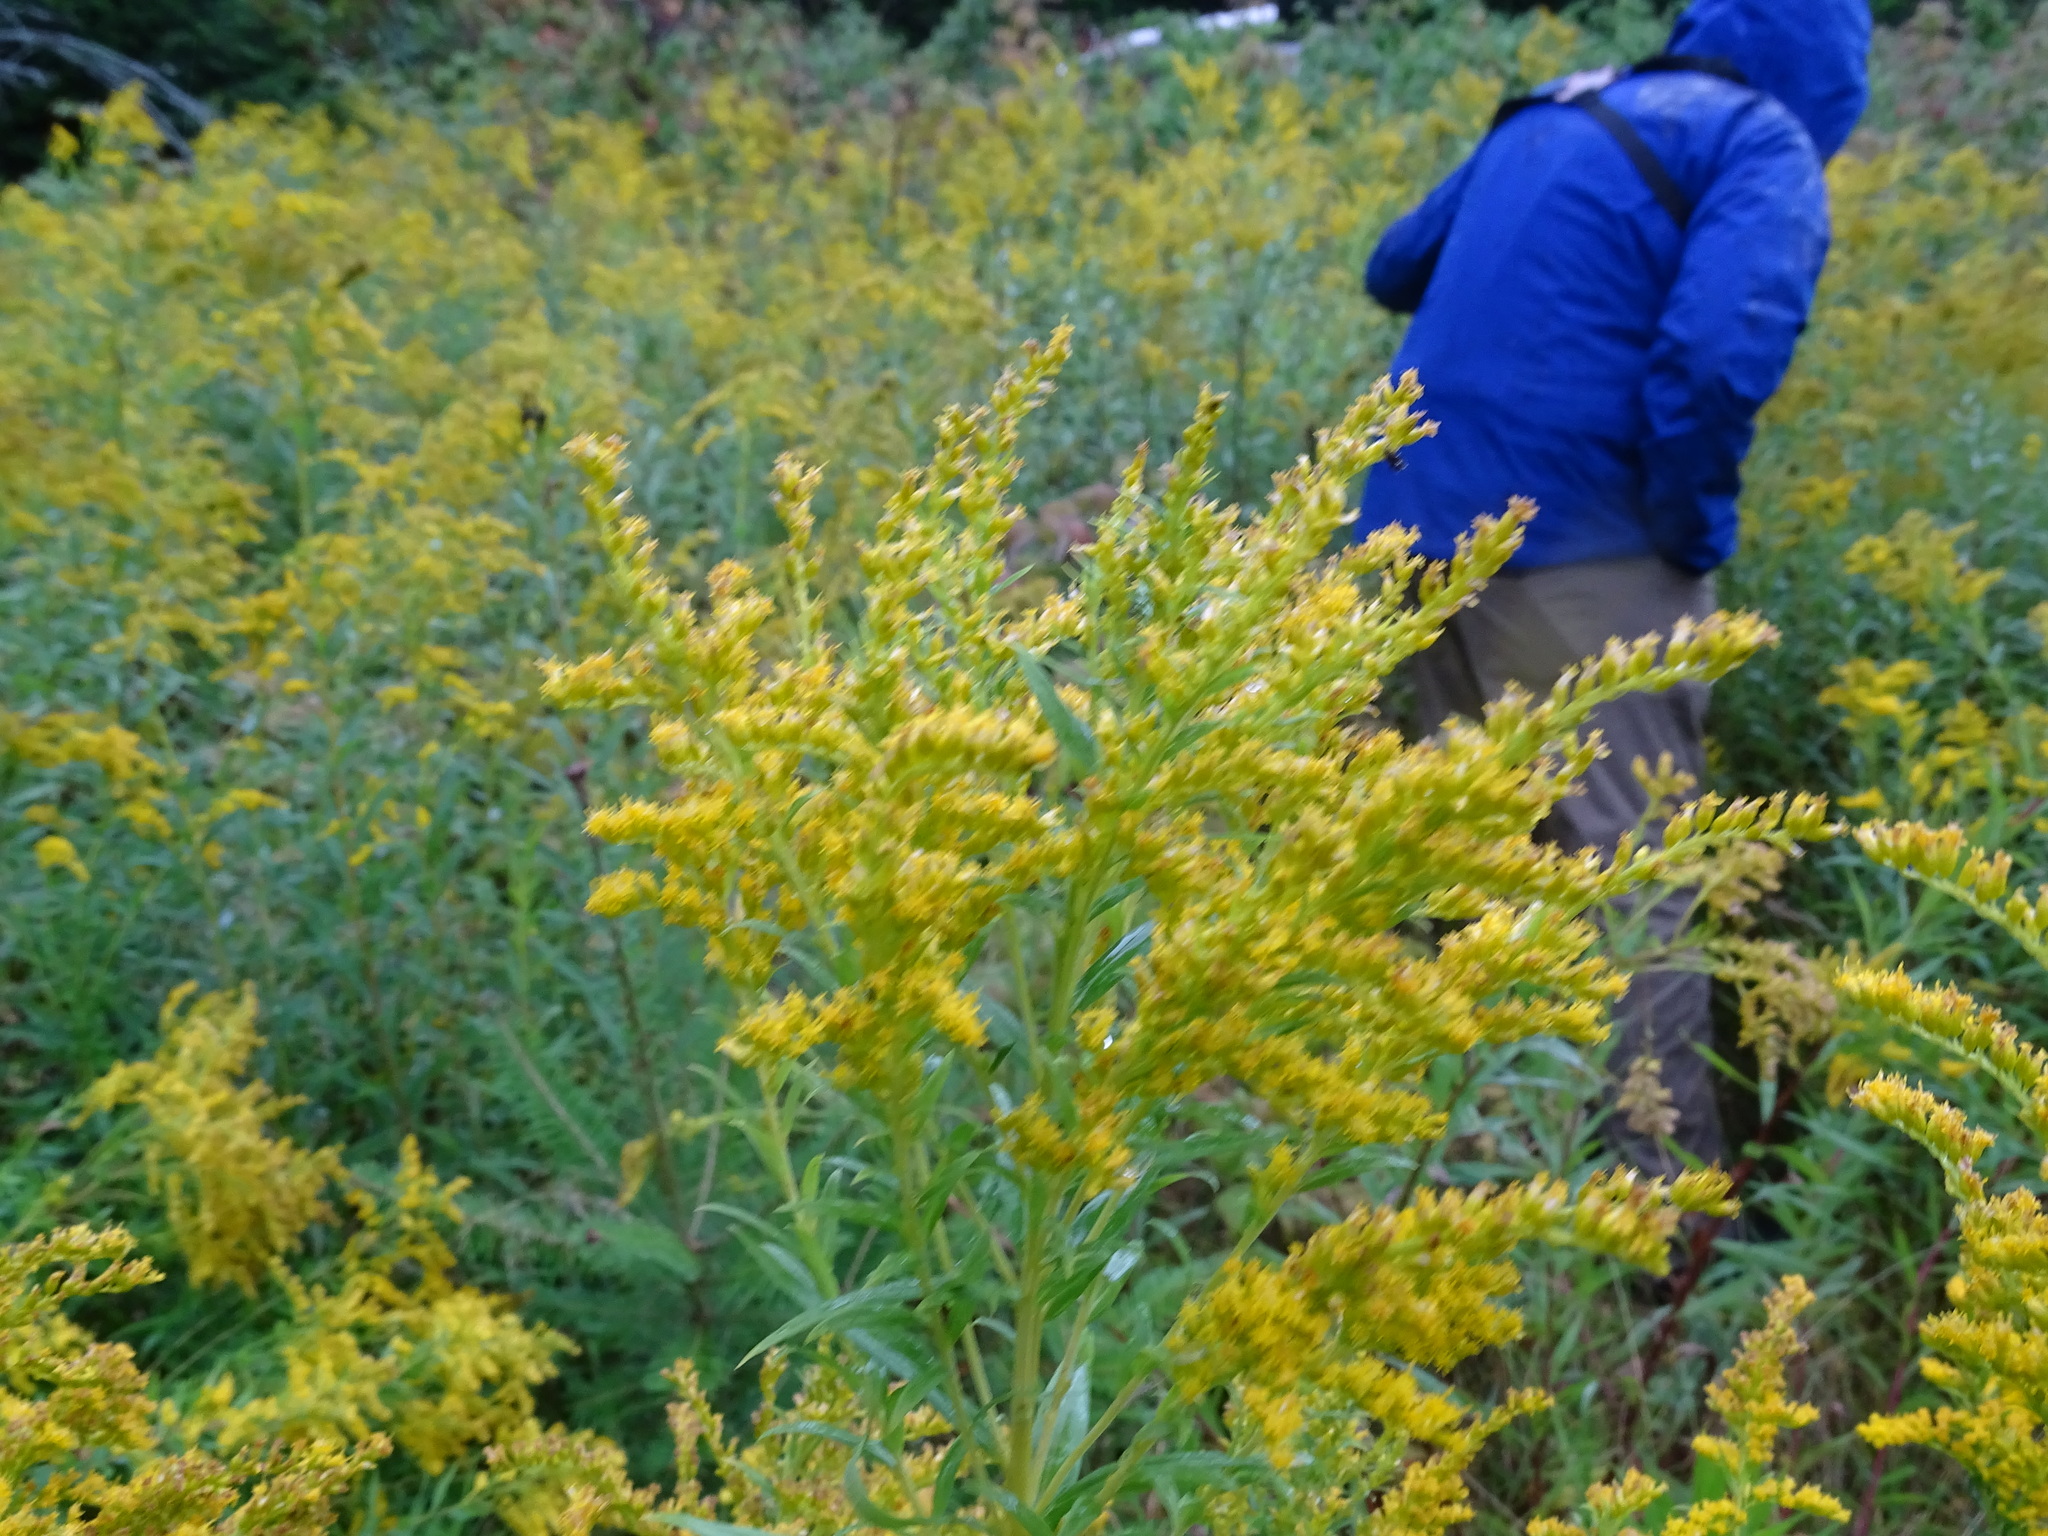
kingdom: Plantae
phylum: Tracheophyta
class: Magnoliopsida
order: Asterales
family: Asteraceae
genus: Solidago
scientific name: Solidago canadensis
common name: Canada goldenrod
